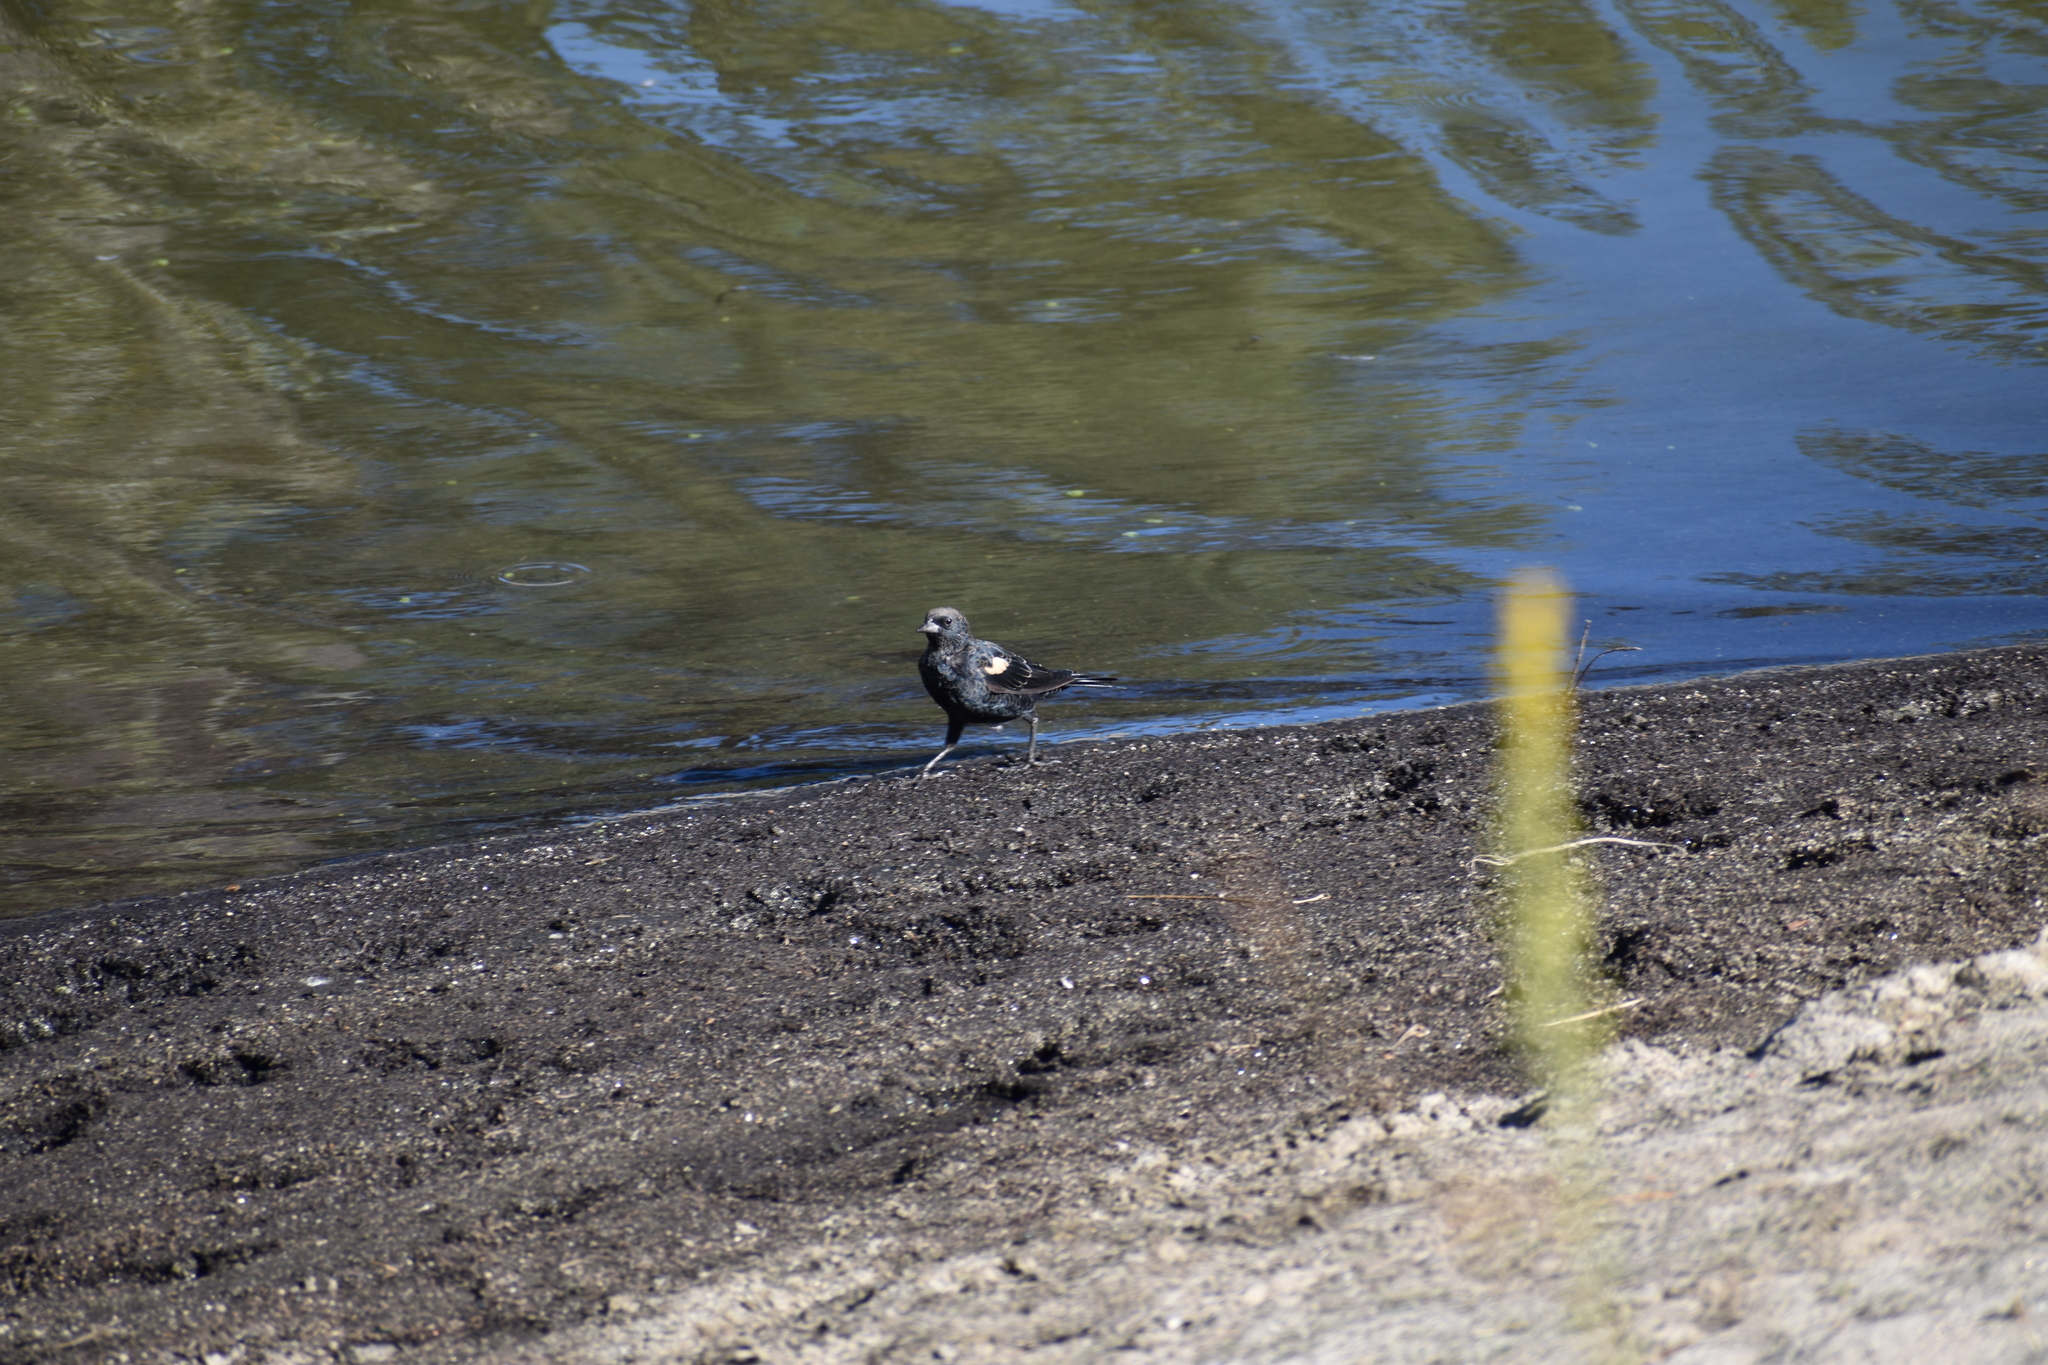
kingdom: Animalia
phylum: Chordata
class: Aves
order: Passeriformes
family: Icteridae
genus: Agelaius
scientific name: Agelaius phoeniceus
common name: Red-winged blackbird
